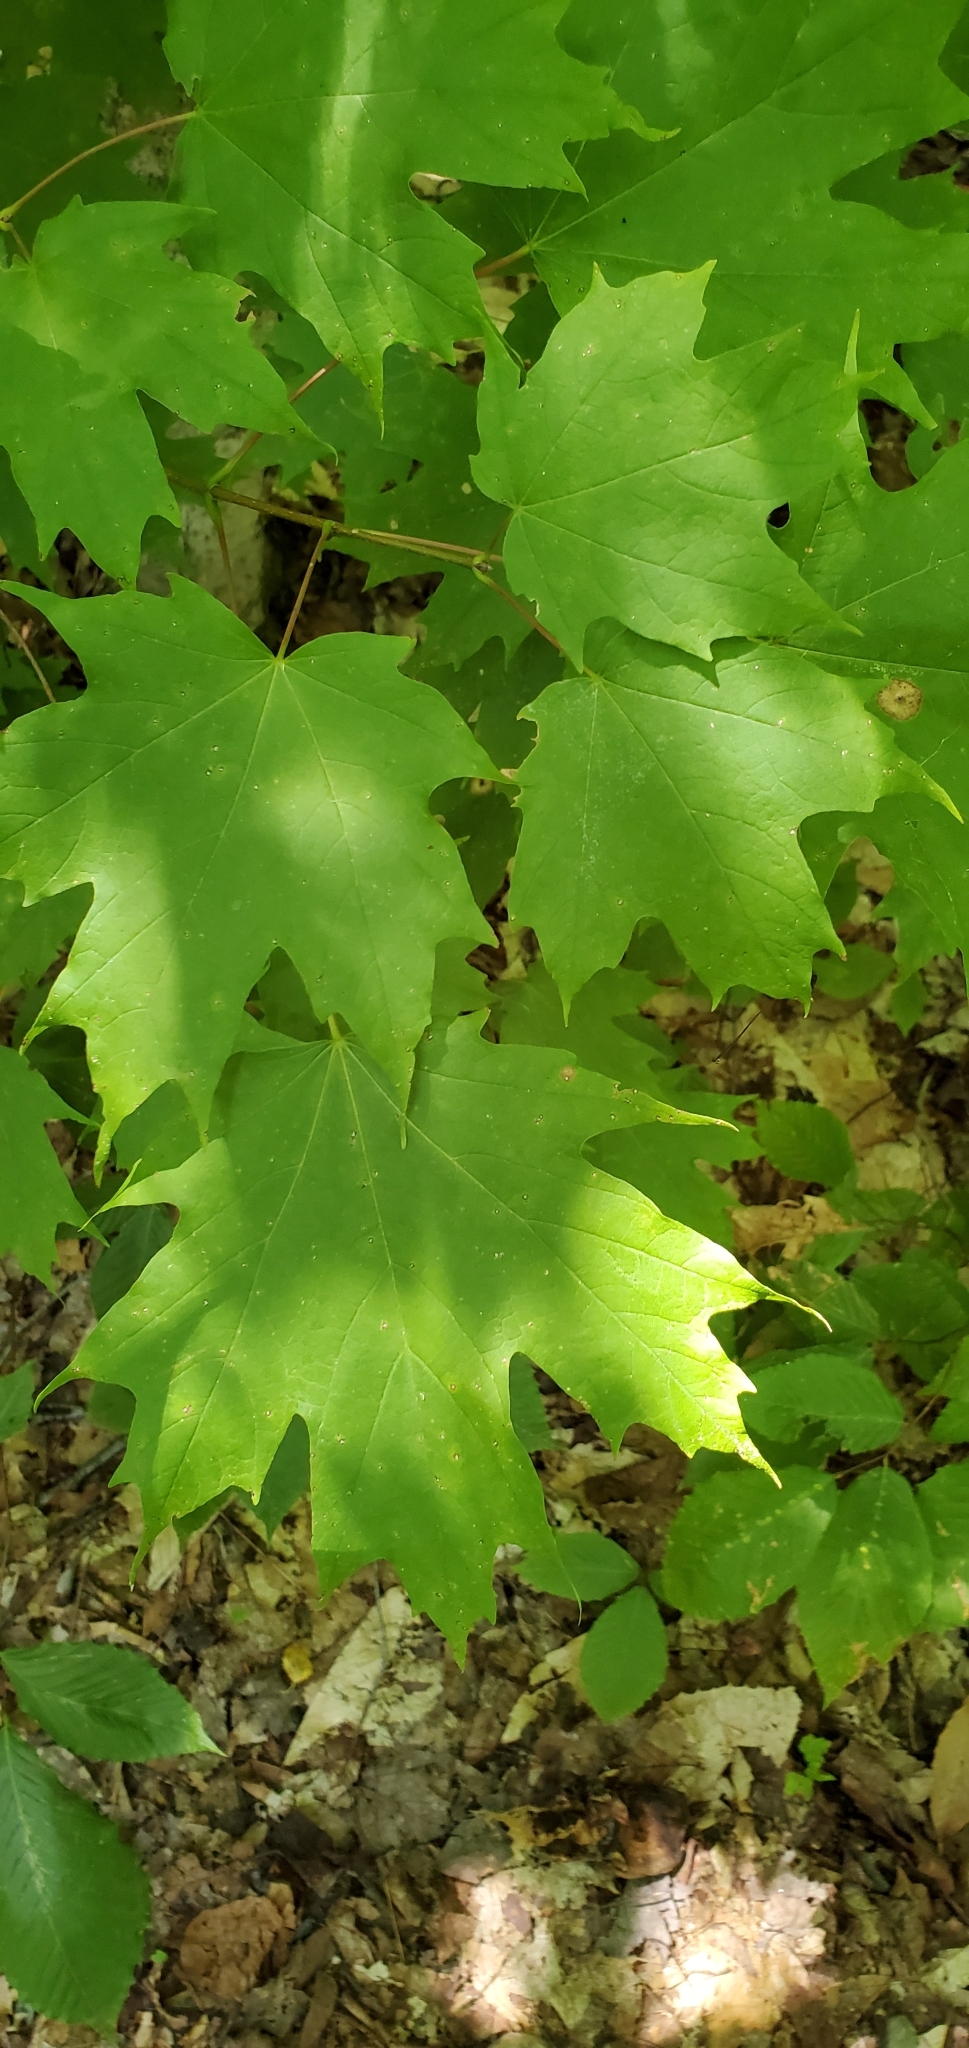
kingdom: Plantae
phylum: Tracheophyta
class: Magnoliopsida
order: Sapindales
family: Sapindaceae
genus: Acer
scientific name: Acer saccharum
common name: Sugar maple
